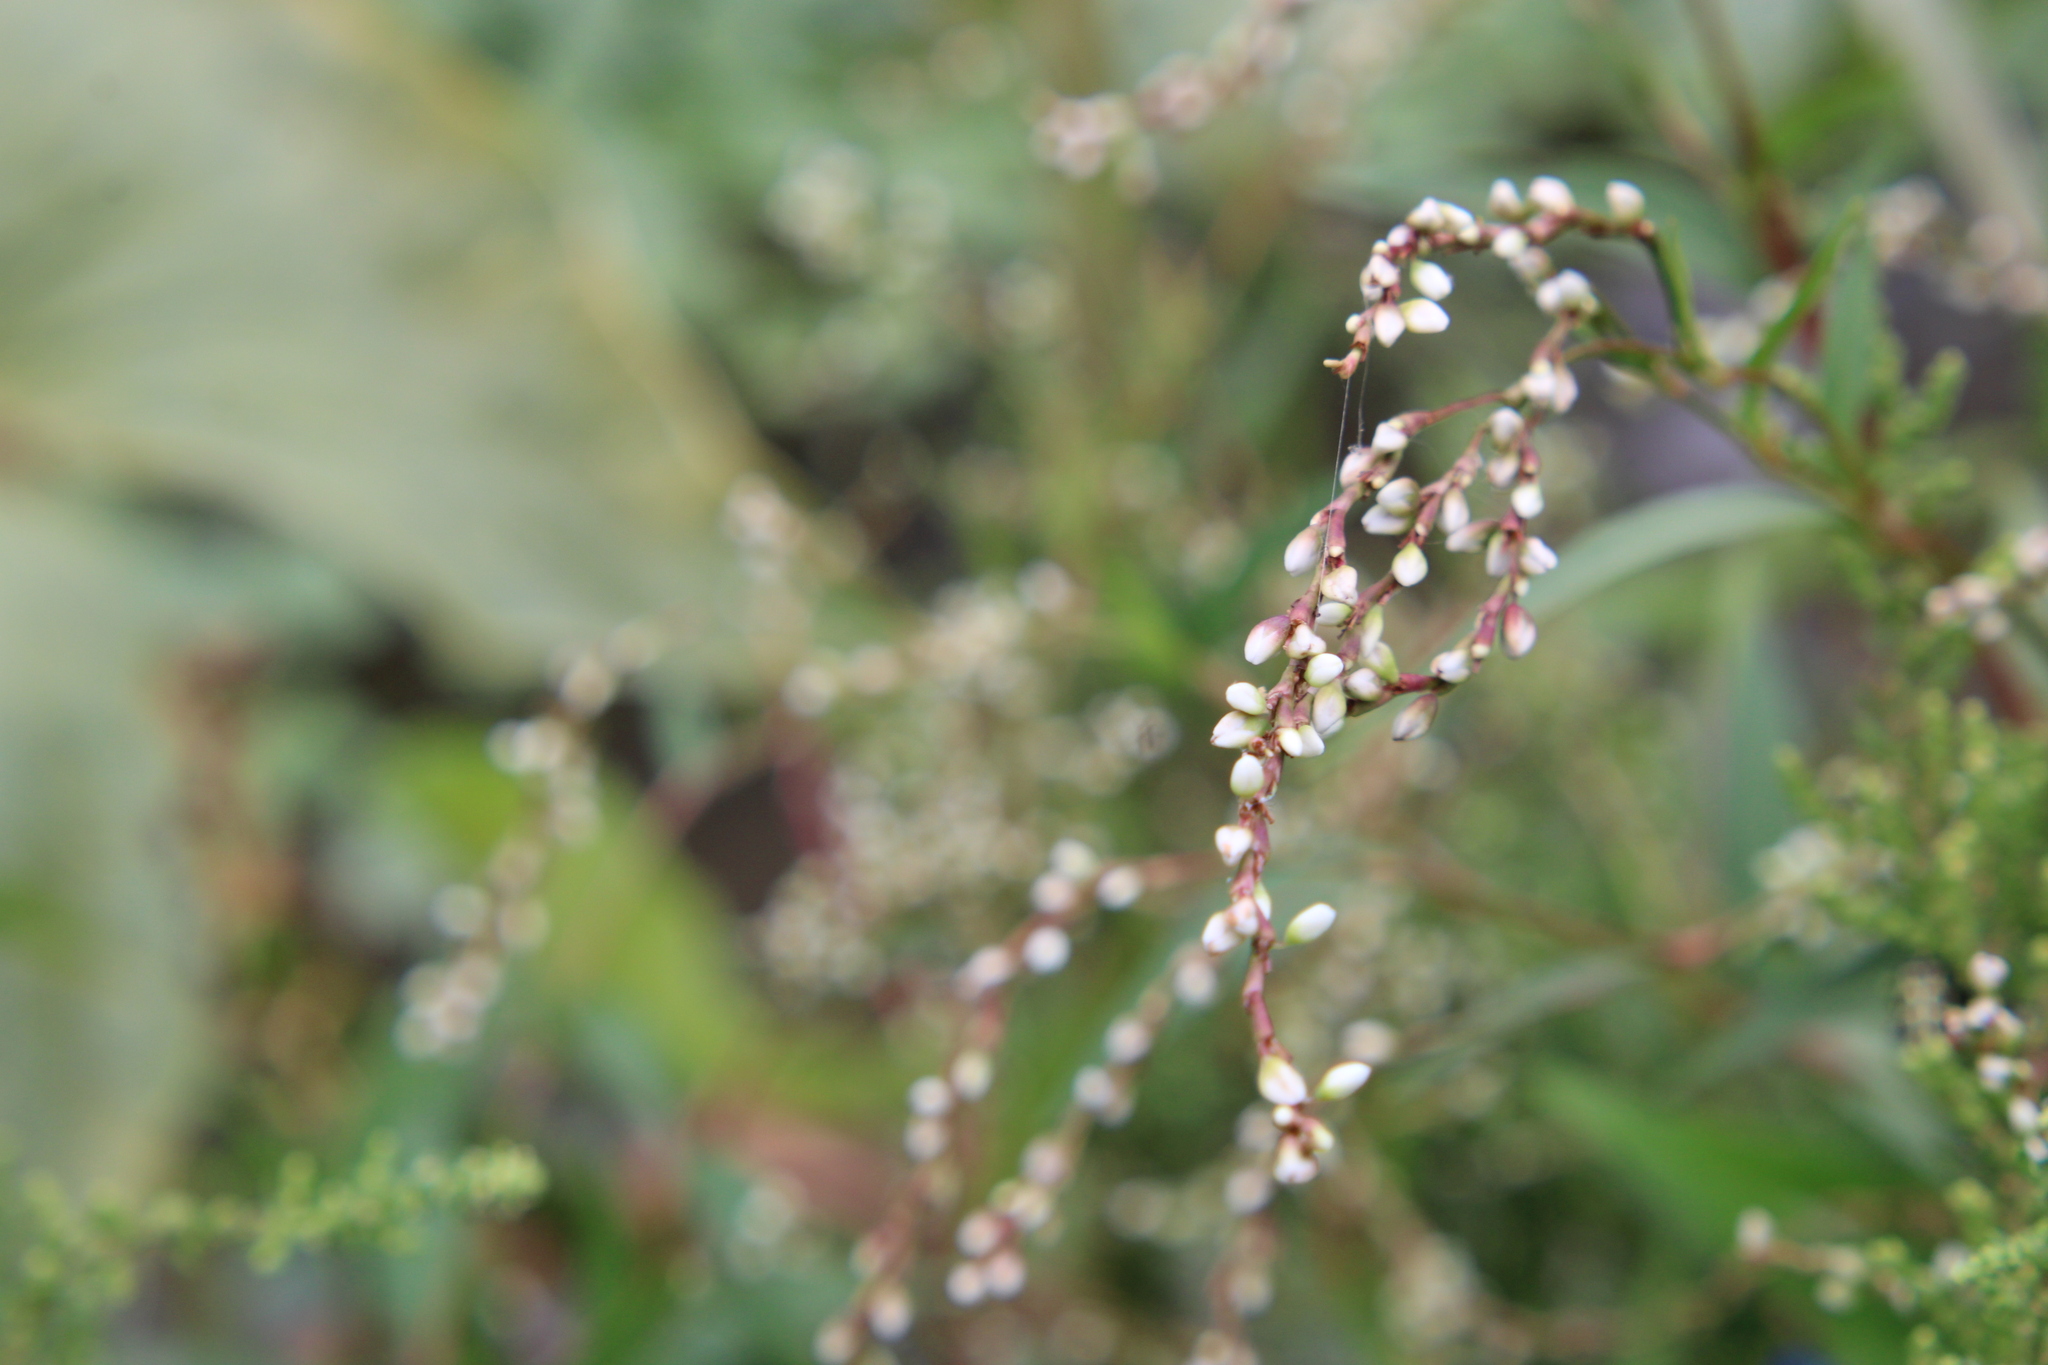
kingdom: Plantae
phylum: Tracheophyta
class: Magnoliopsida
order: Caryophyllales
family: Polygonaceae
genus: Persicaria
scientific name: Persicaria punctata
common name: Dotted smartweed
